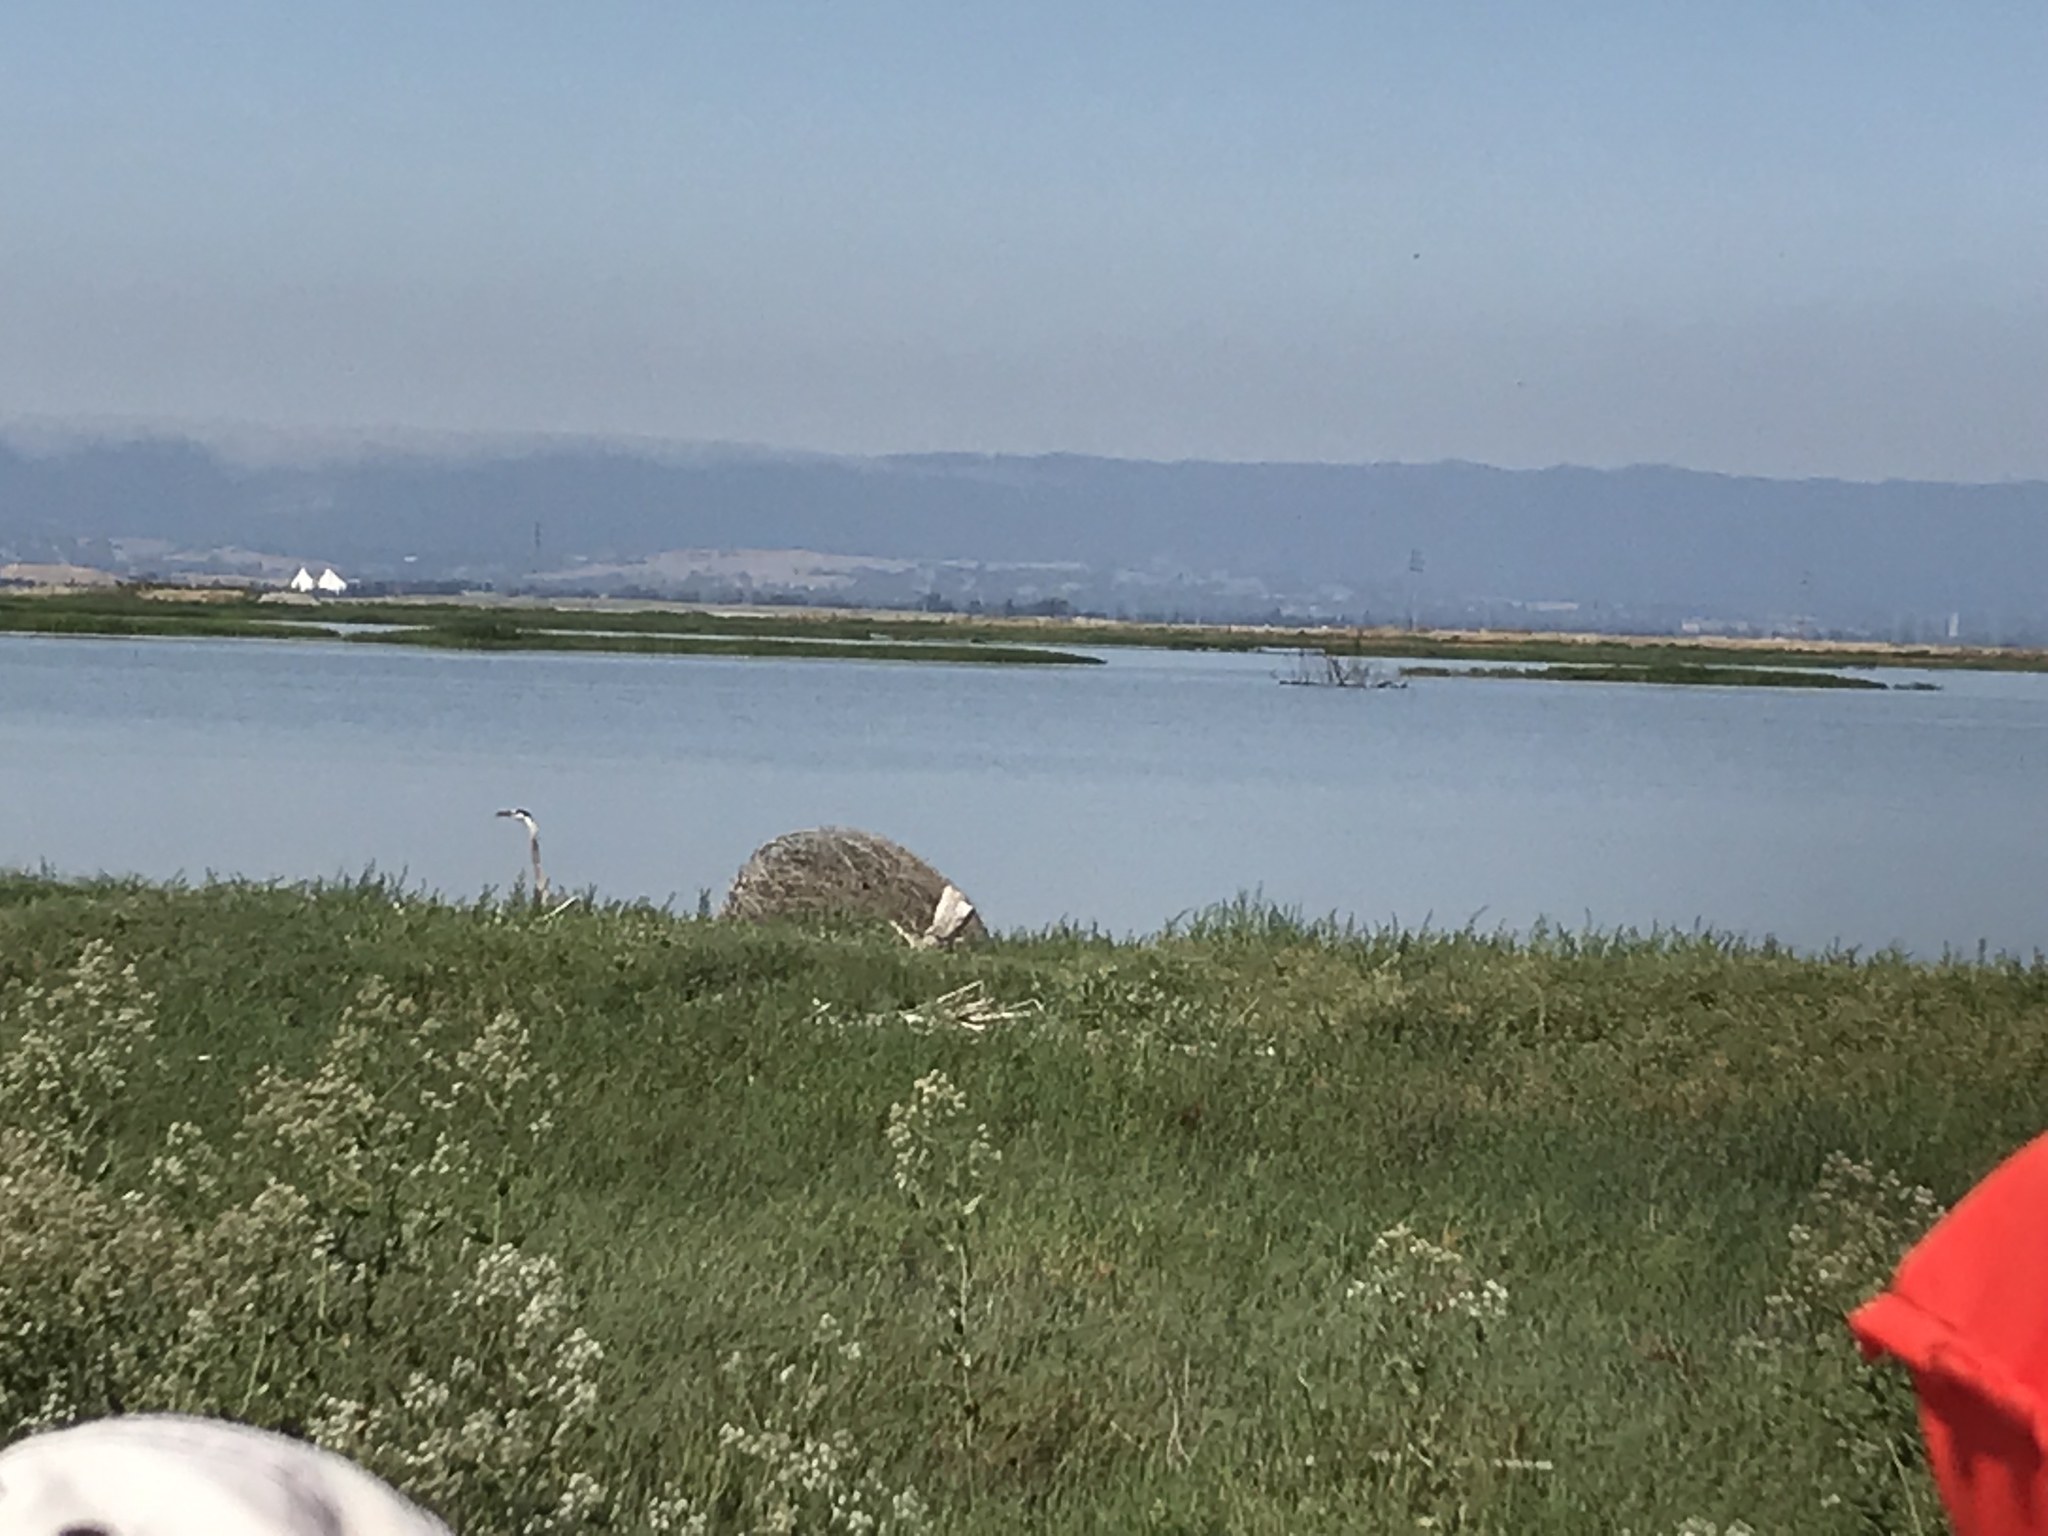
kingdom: Animalia
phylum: Chordata
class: Aves
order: Pelecaniformes
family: Ardeidae
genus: Ardea
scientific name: Ardea herodias
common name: Great blue heron
